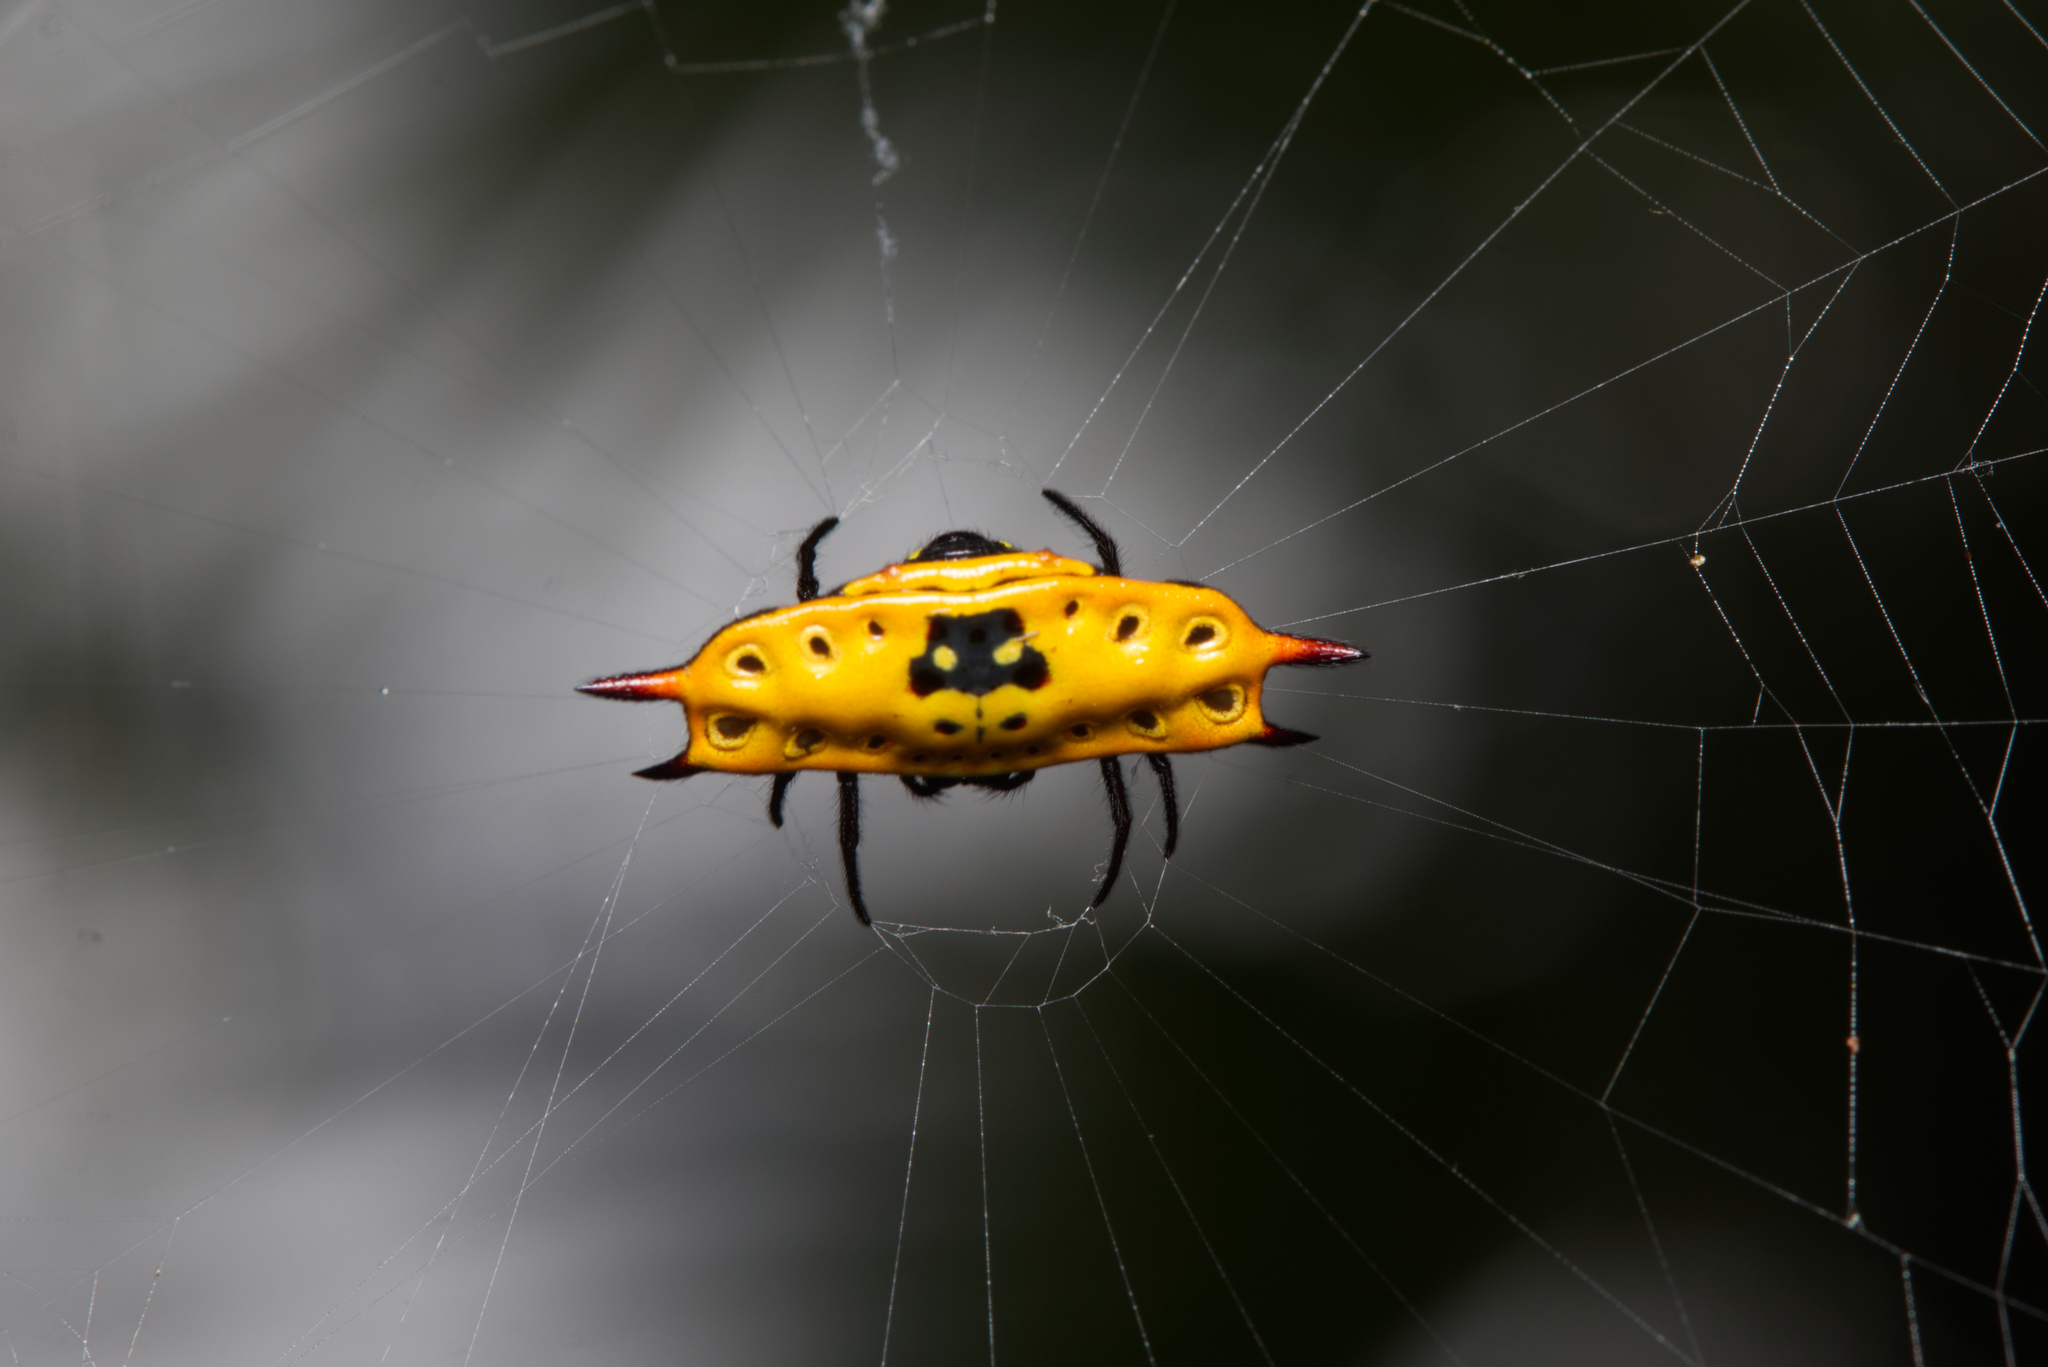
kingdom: Animalia
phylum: Arthropoda
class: Arachnida
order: Araneae
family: Araneidae
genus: Gasteracantha
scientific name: Gasteracantha quadrispinosa
